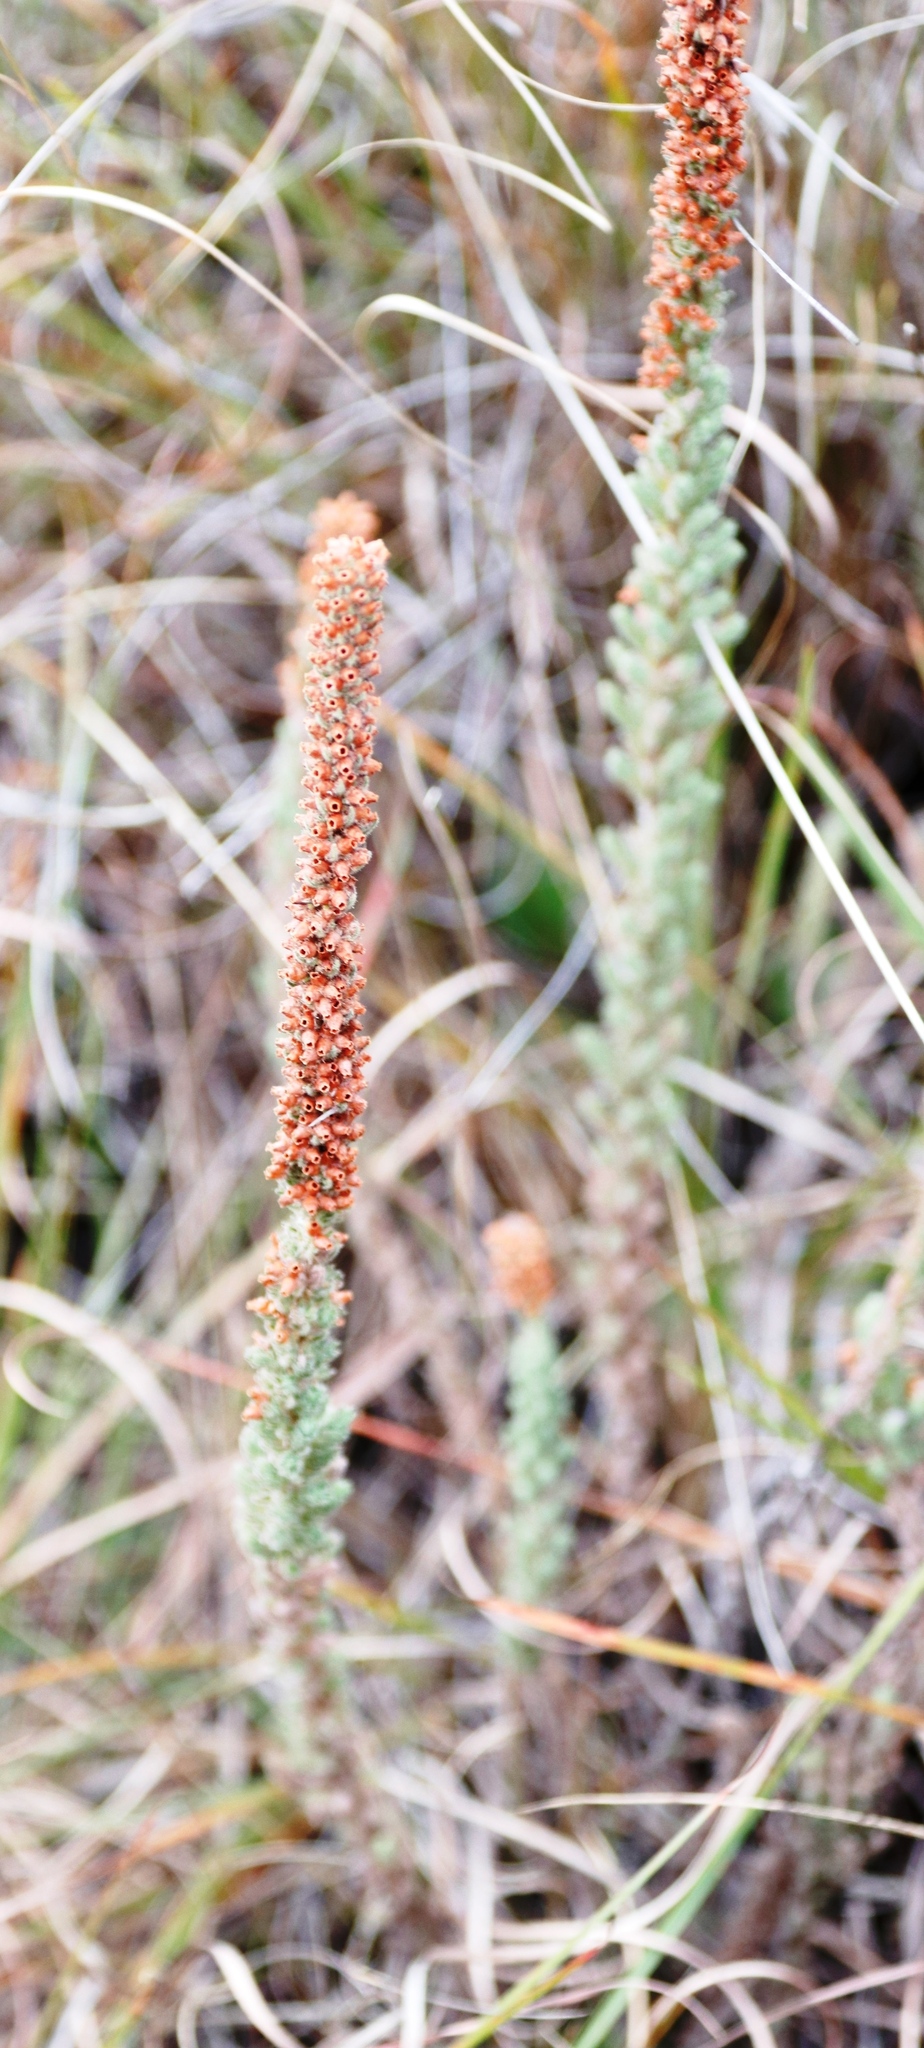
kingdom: Plantae
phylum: Tracheophyta
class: Magnoliopsida
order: Ericales
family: Ericaceae
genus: Erica
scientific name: Erica alopecurus
